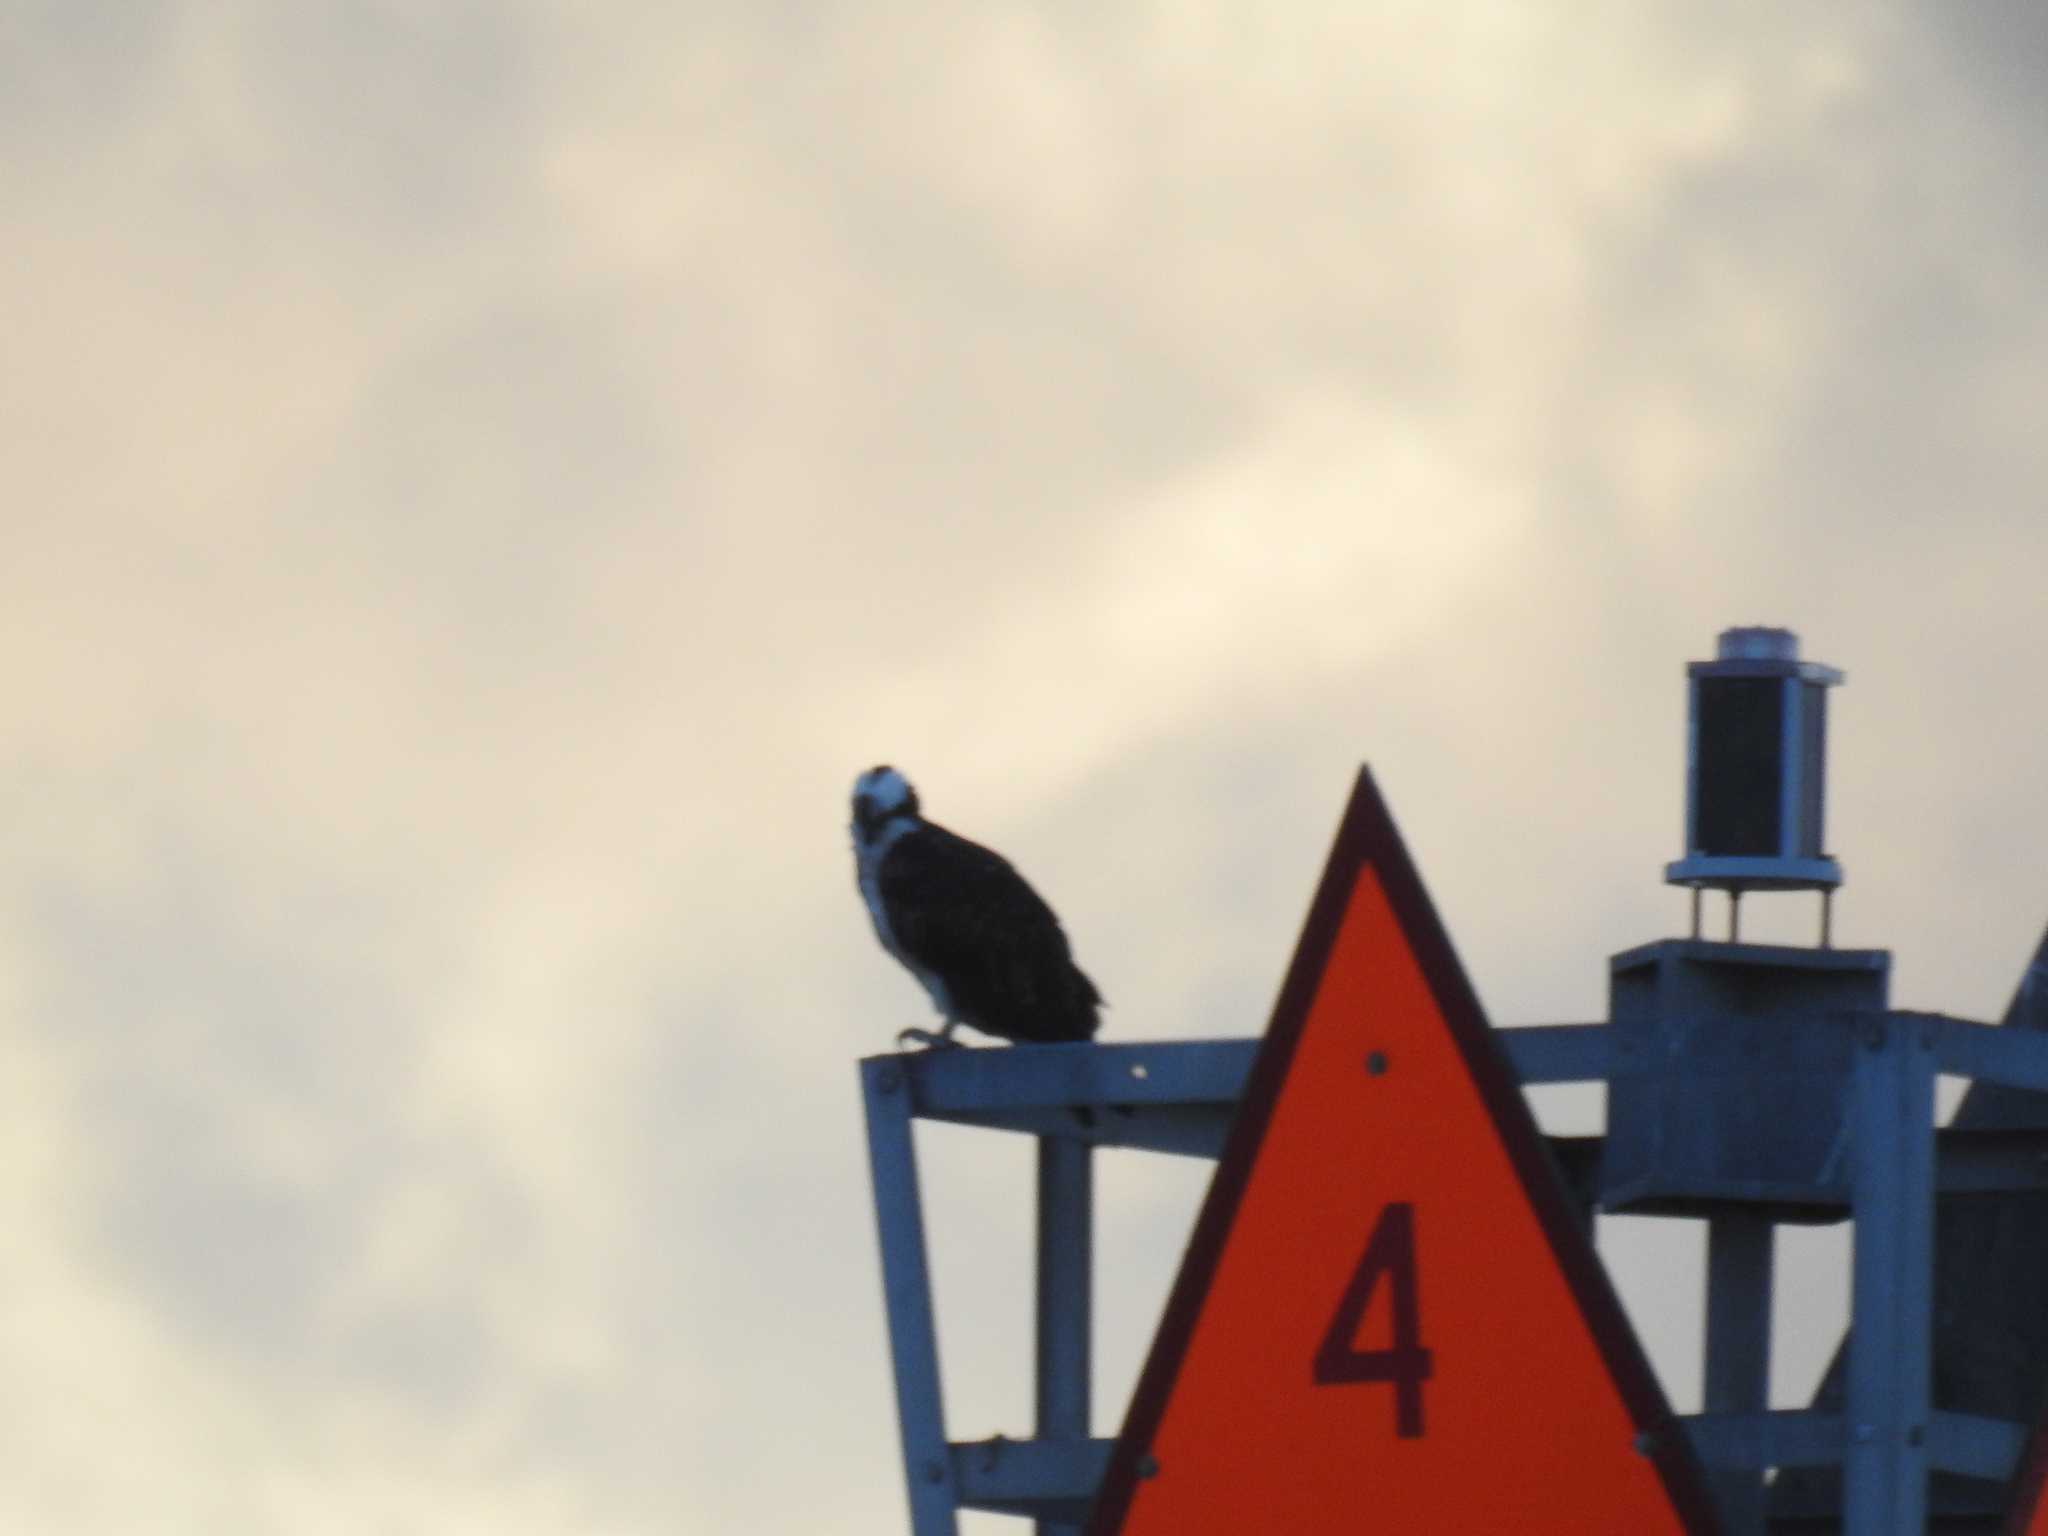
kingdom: Animalia
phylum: Chordata
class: Aves
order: Accipitriformes
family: Pandionidae
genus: Pandion
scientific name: Pandion haliaetus
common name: Osprey
